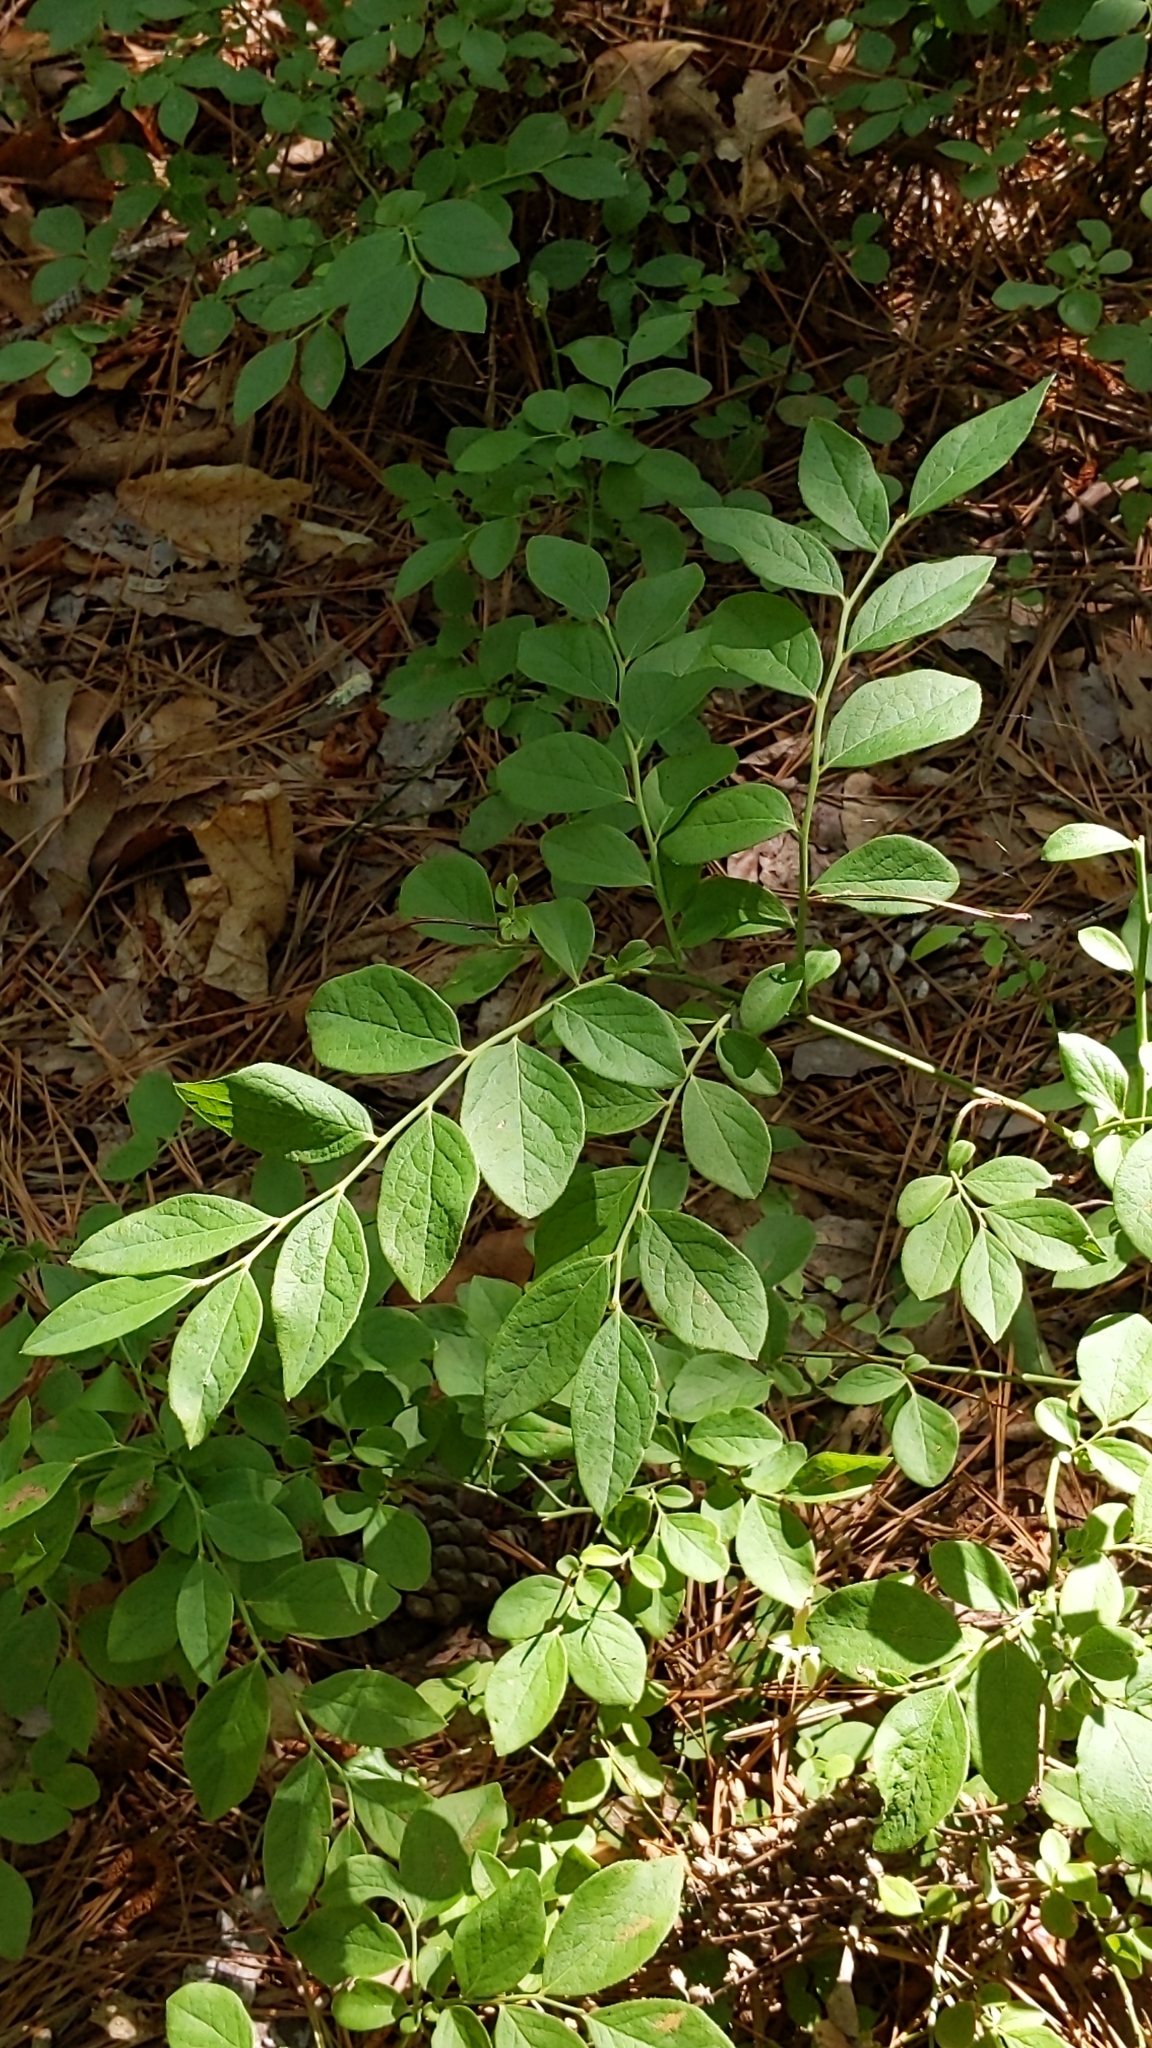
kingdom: Plantae
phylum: Tracheophyta
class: Magnoliopsida
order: Ericales
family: Ericaceae
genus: Gaylussacia
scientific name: Gaylussacia frondosa
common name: Dangleberry
